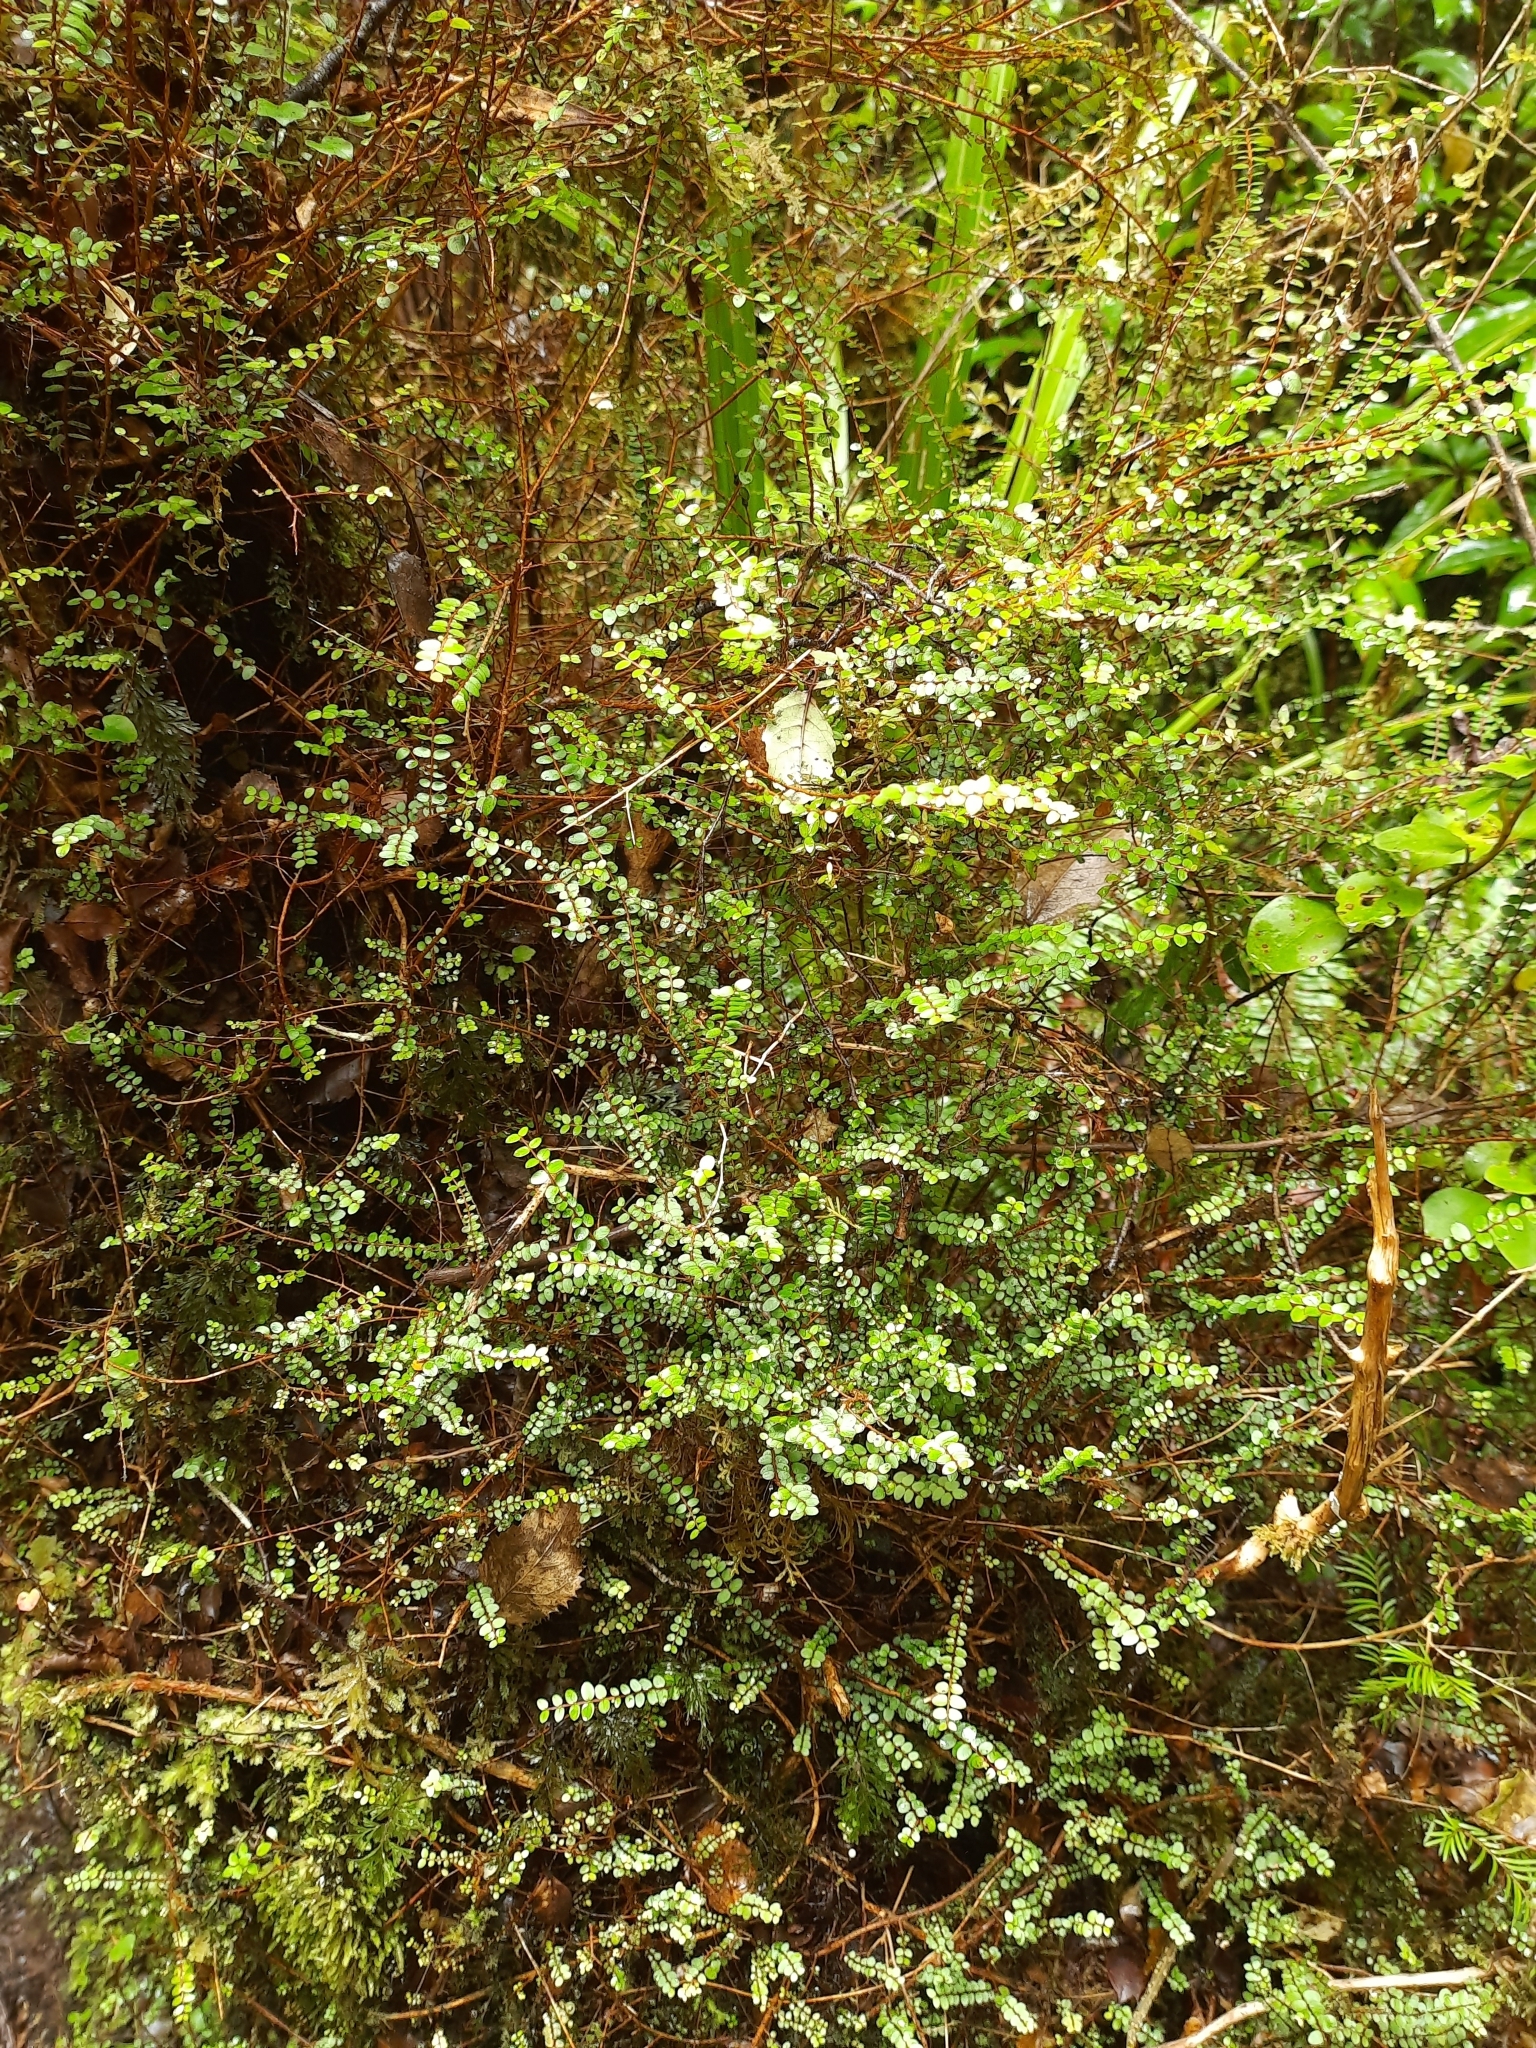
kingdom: Plantae
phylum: Tracheophyta
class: Magnoliopsida
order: Myrtales
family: Myrtaceae
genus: Metrosideros
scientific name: Metrosideros diffusa
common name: Small ratavine
